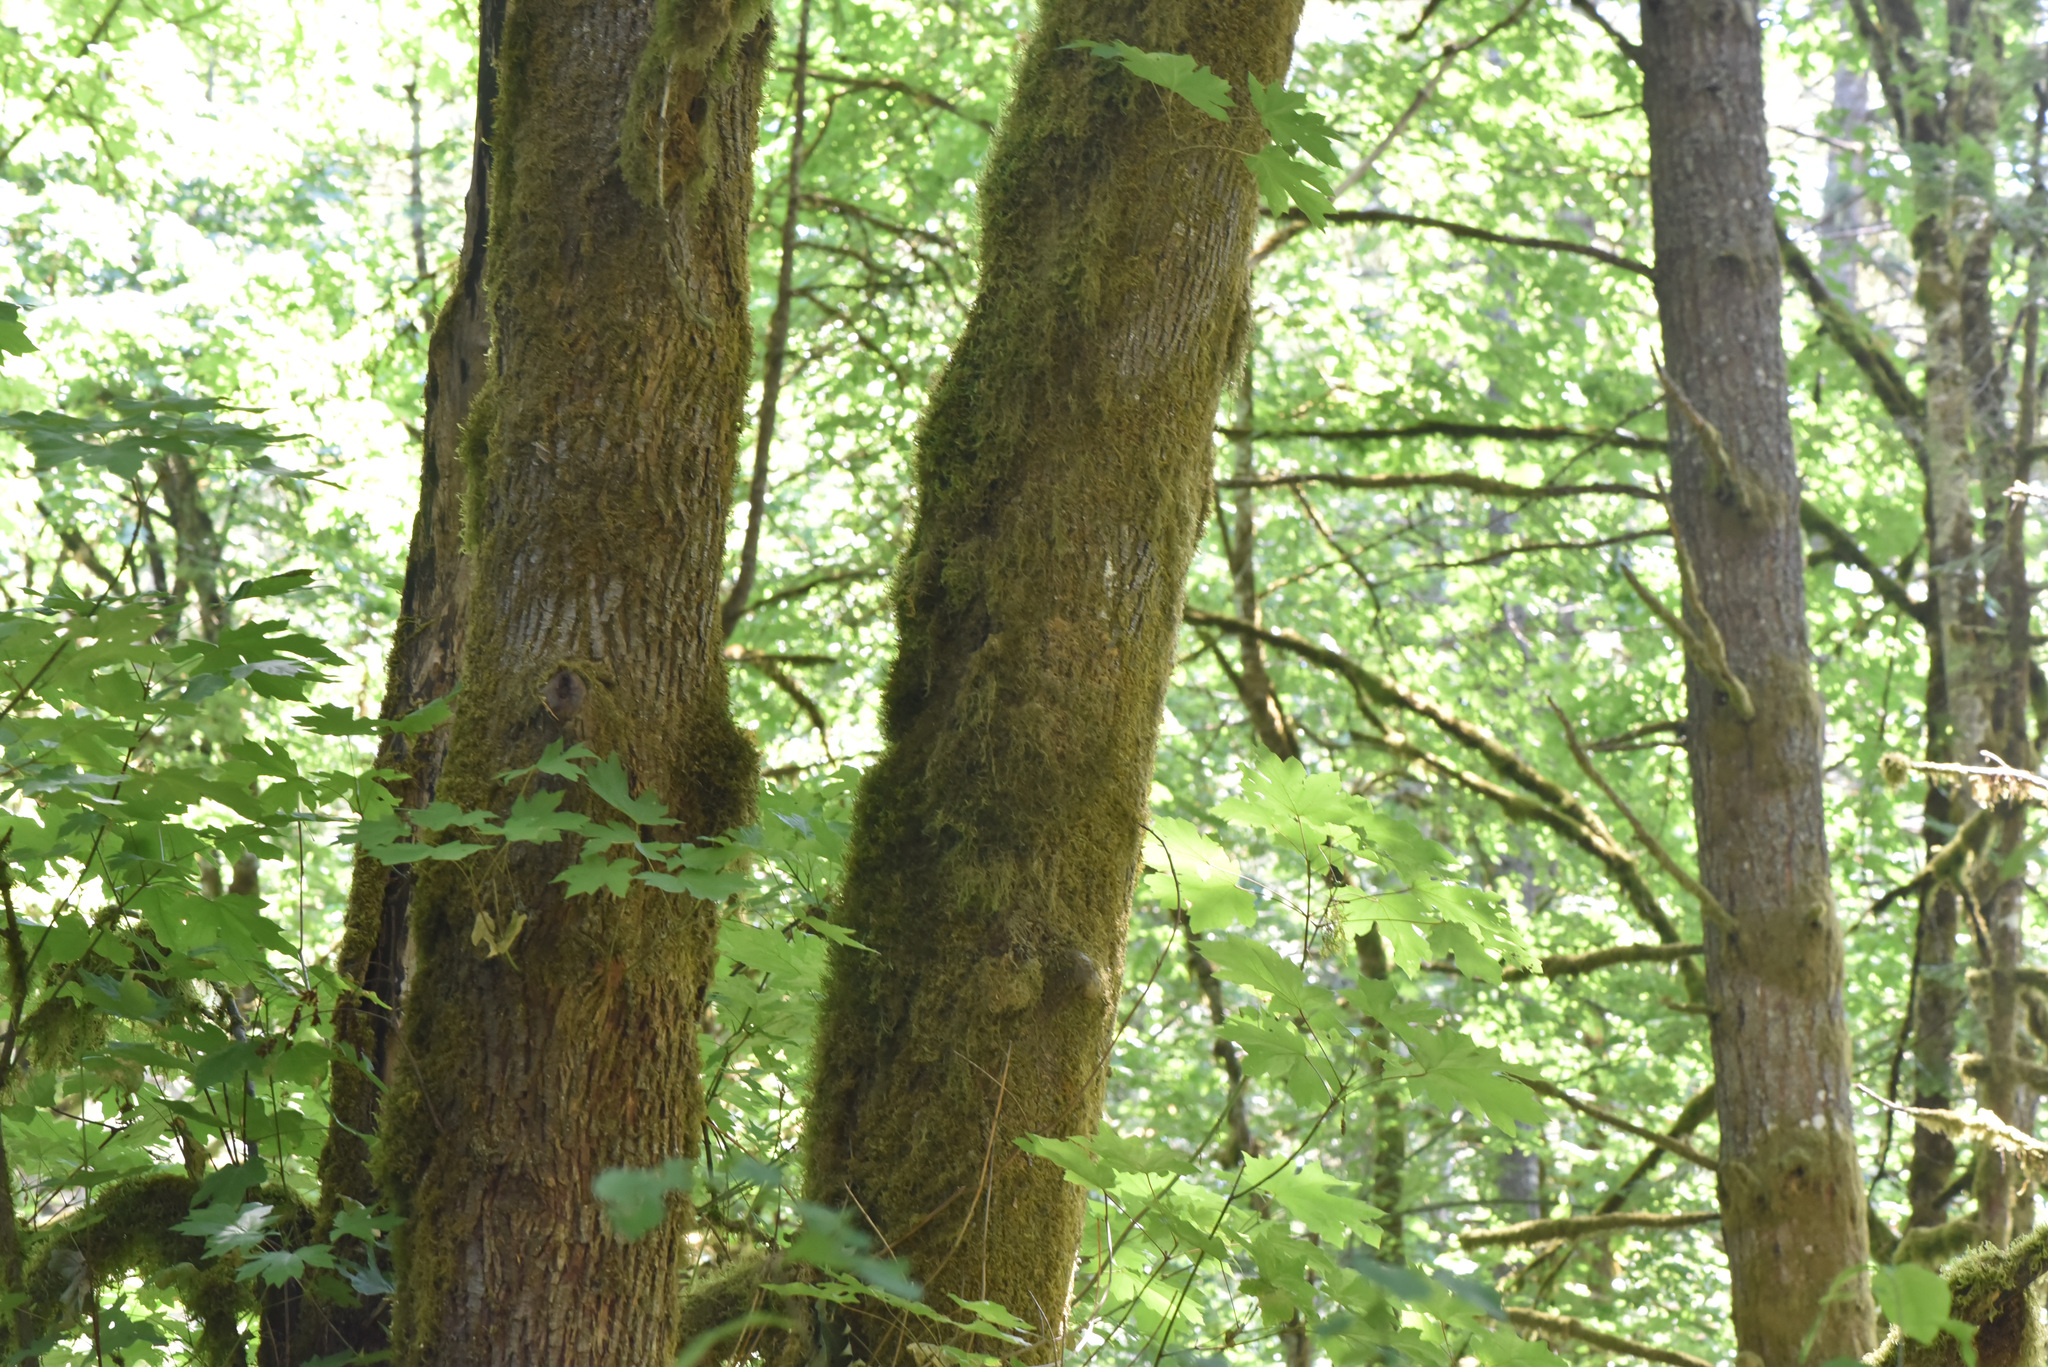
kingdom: Plantae
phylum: Tracheophyta
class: Magnoliopsida
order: Sapindales
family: Sapindaceae
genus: Acer
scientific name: Acer macrophyllum
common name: Oregon maple
